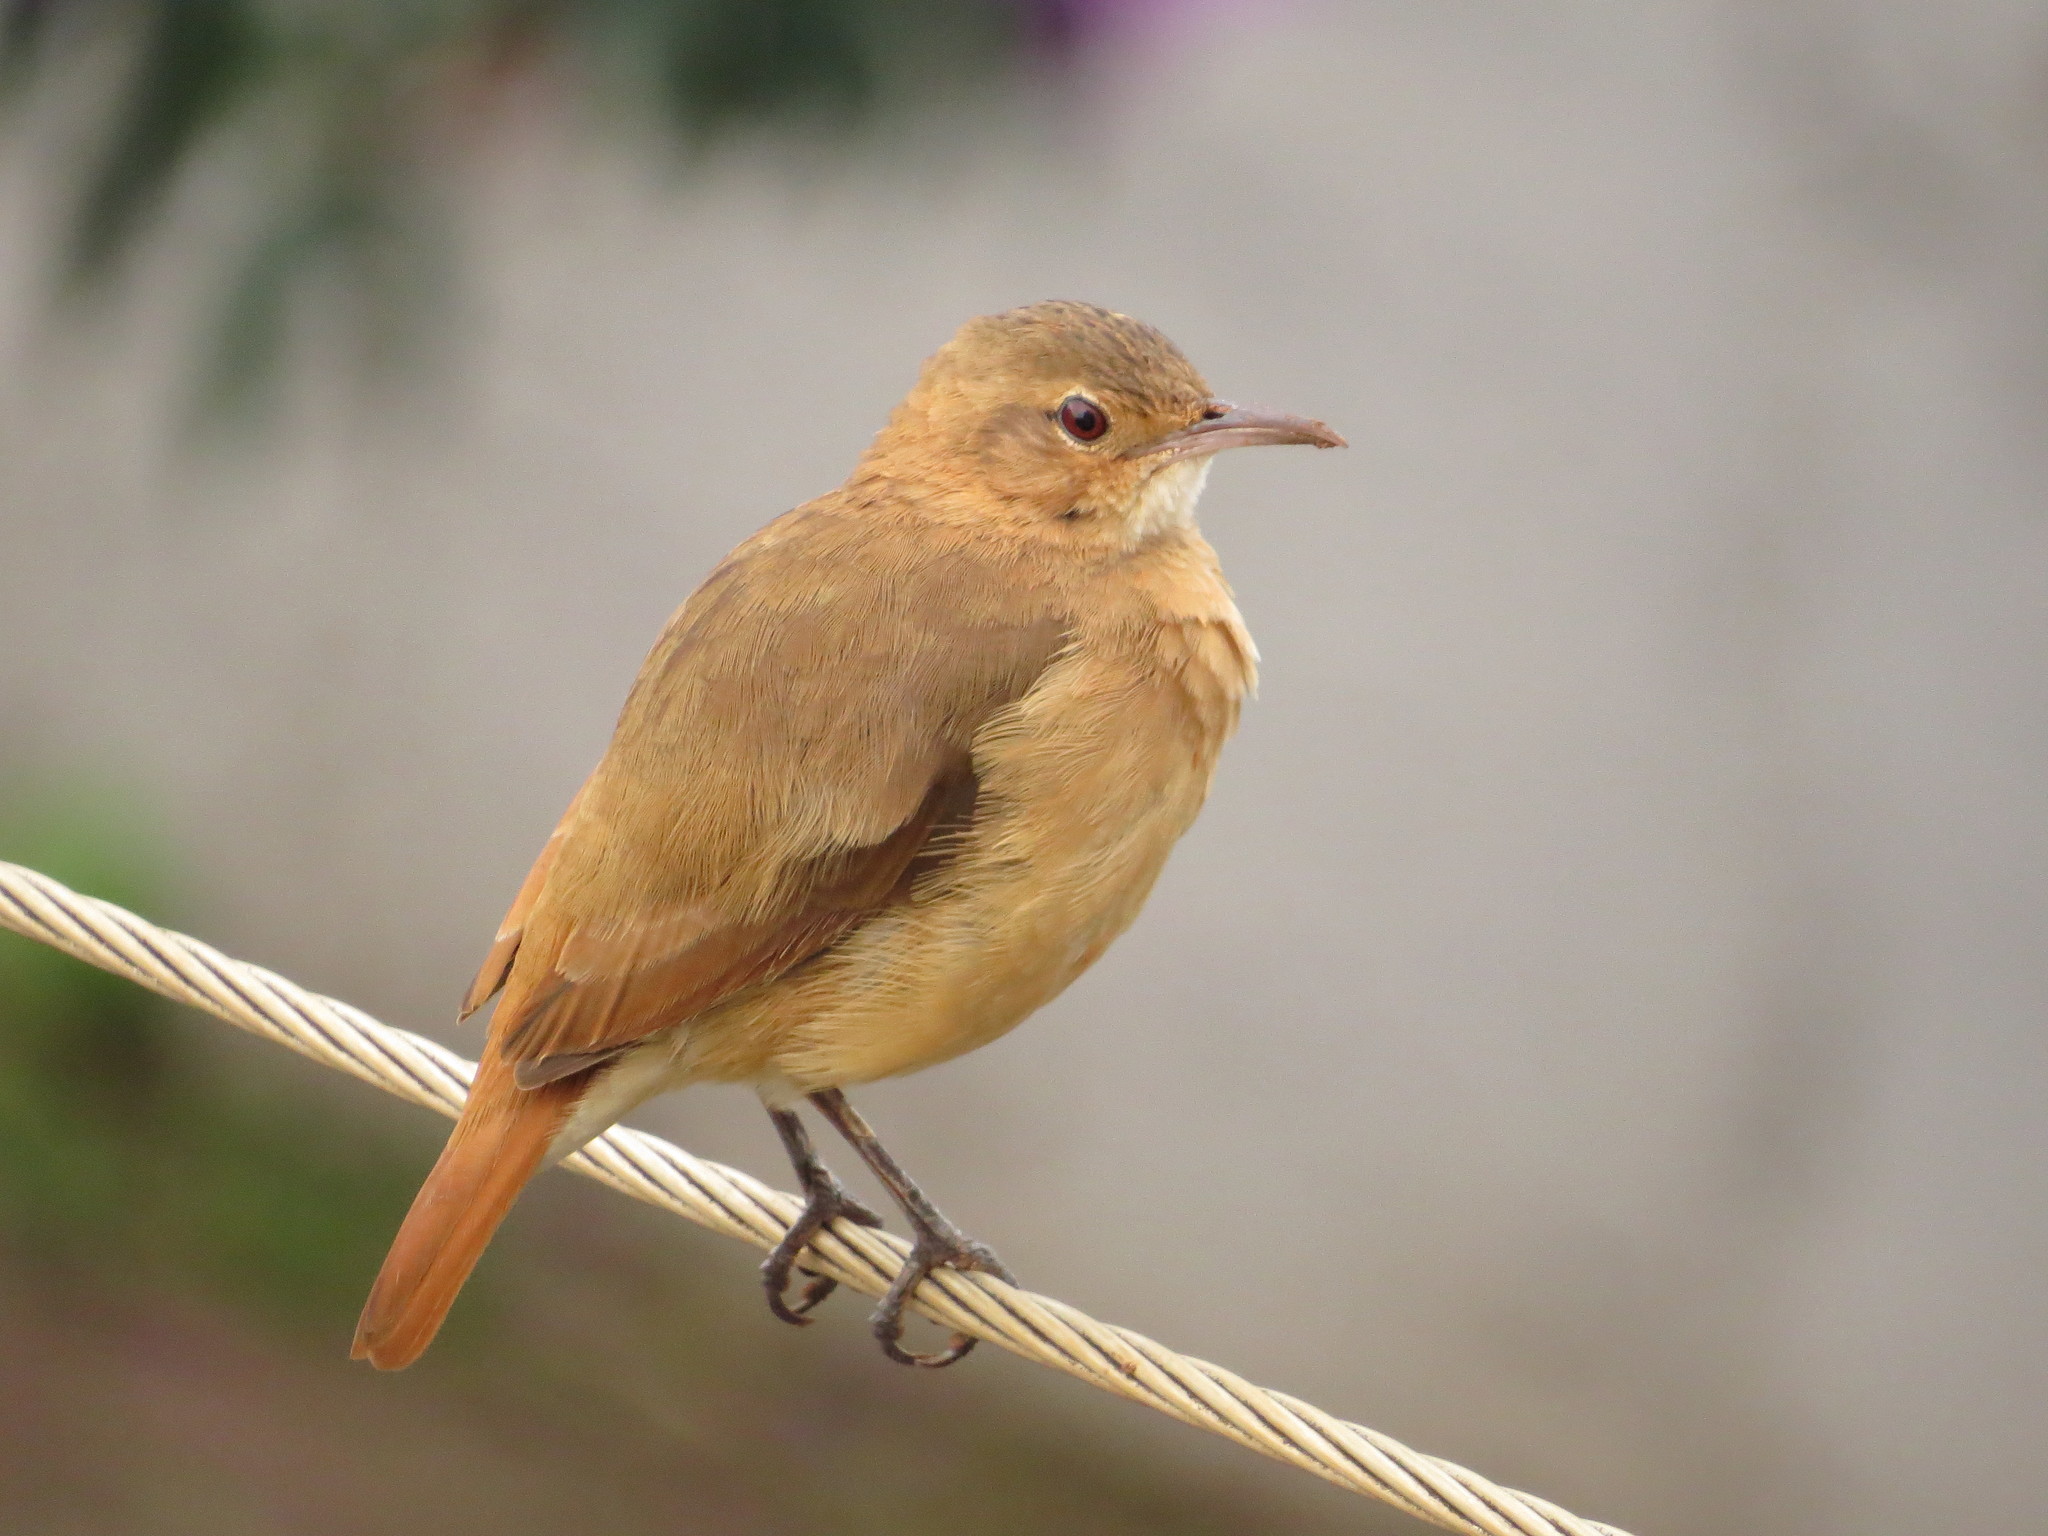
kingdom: Animalia
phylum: Chordata
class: Aves
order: Passeriformes
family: Furnariidae
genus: Furnarius
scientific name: Furnarius rufus
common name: Rufous hornero
